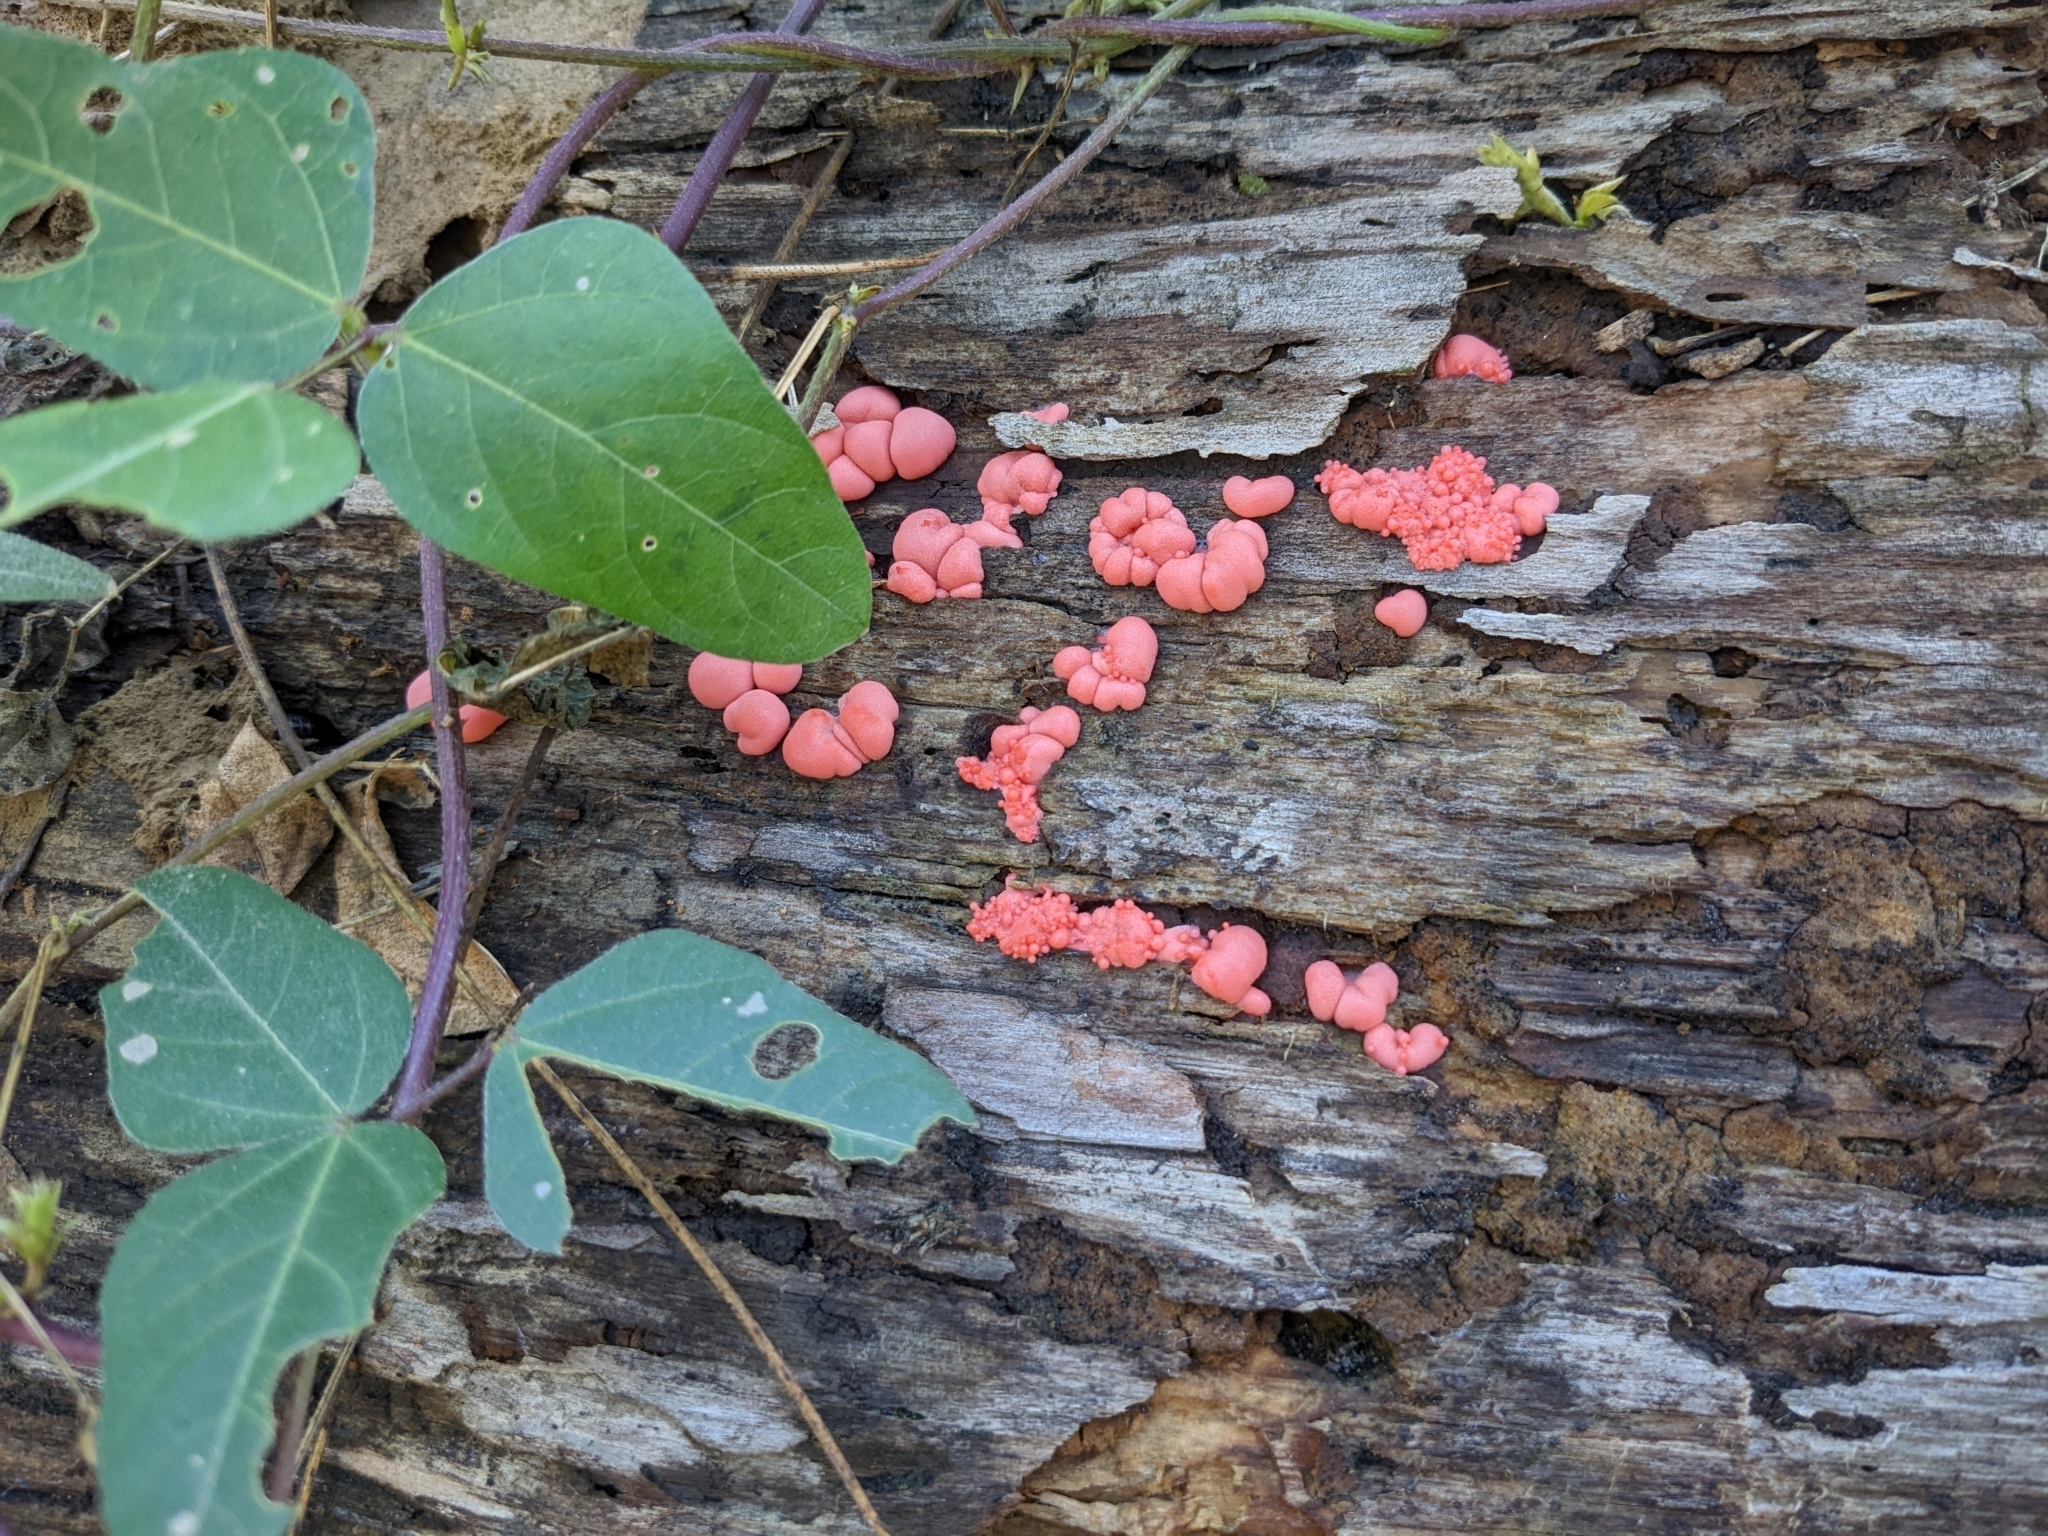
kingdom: Protozoa
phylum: Mycetozoa
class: Myxomycetes
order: Cribrariales
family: Tubiferaceae
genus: Lycogala
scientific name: Lycogala epidendrum
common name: Wolf's milk
